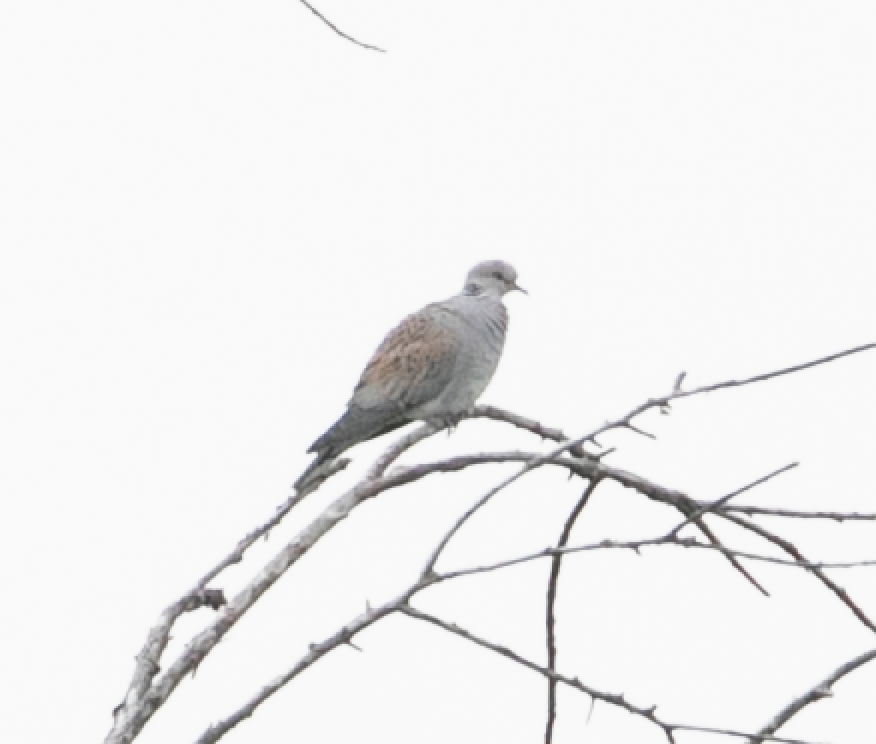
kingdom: Animalia
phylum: Chordata
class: Aves
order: Columbiformes
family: Columbidae
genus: Streptopelia
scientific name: Streptopelia turtur
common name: European turtle dove
